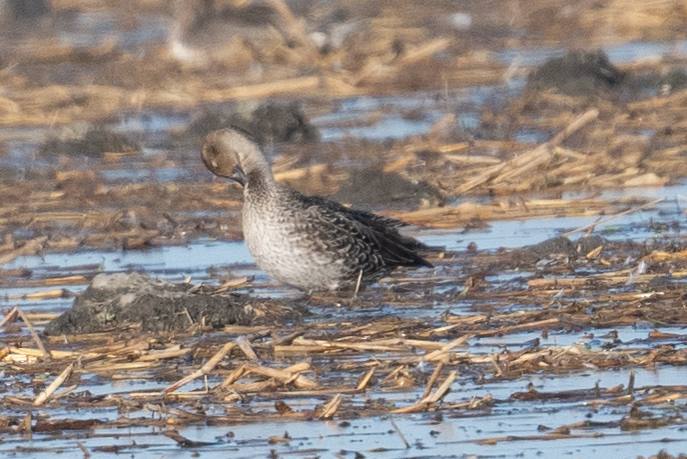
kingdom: Animalia
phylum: Chordata
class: Aves
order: Anseriformes
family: Anatidae
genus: Anas
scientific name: Anas acuta
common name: Northern pintail
